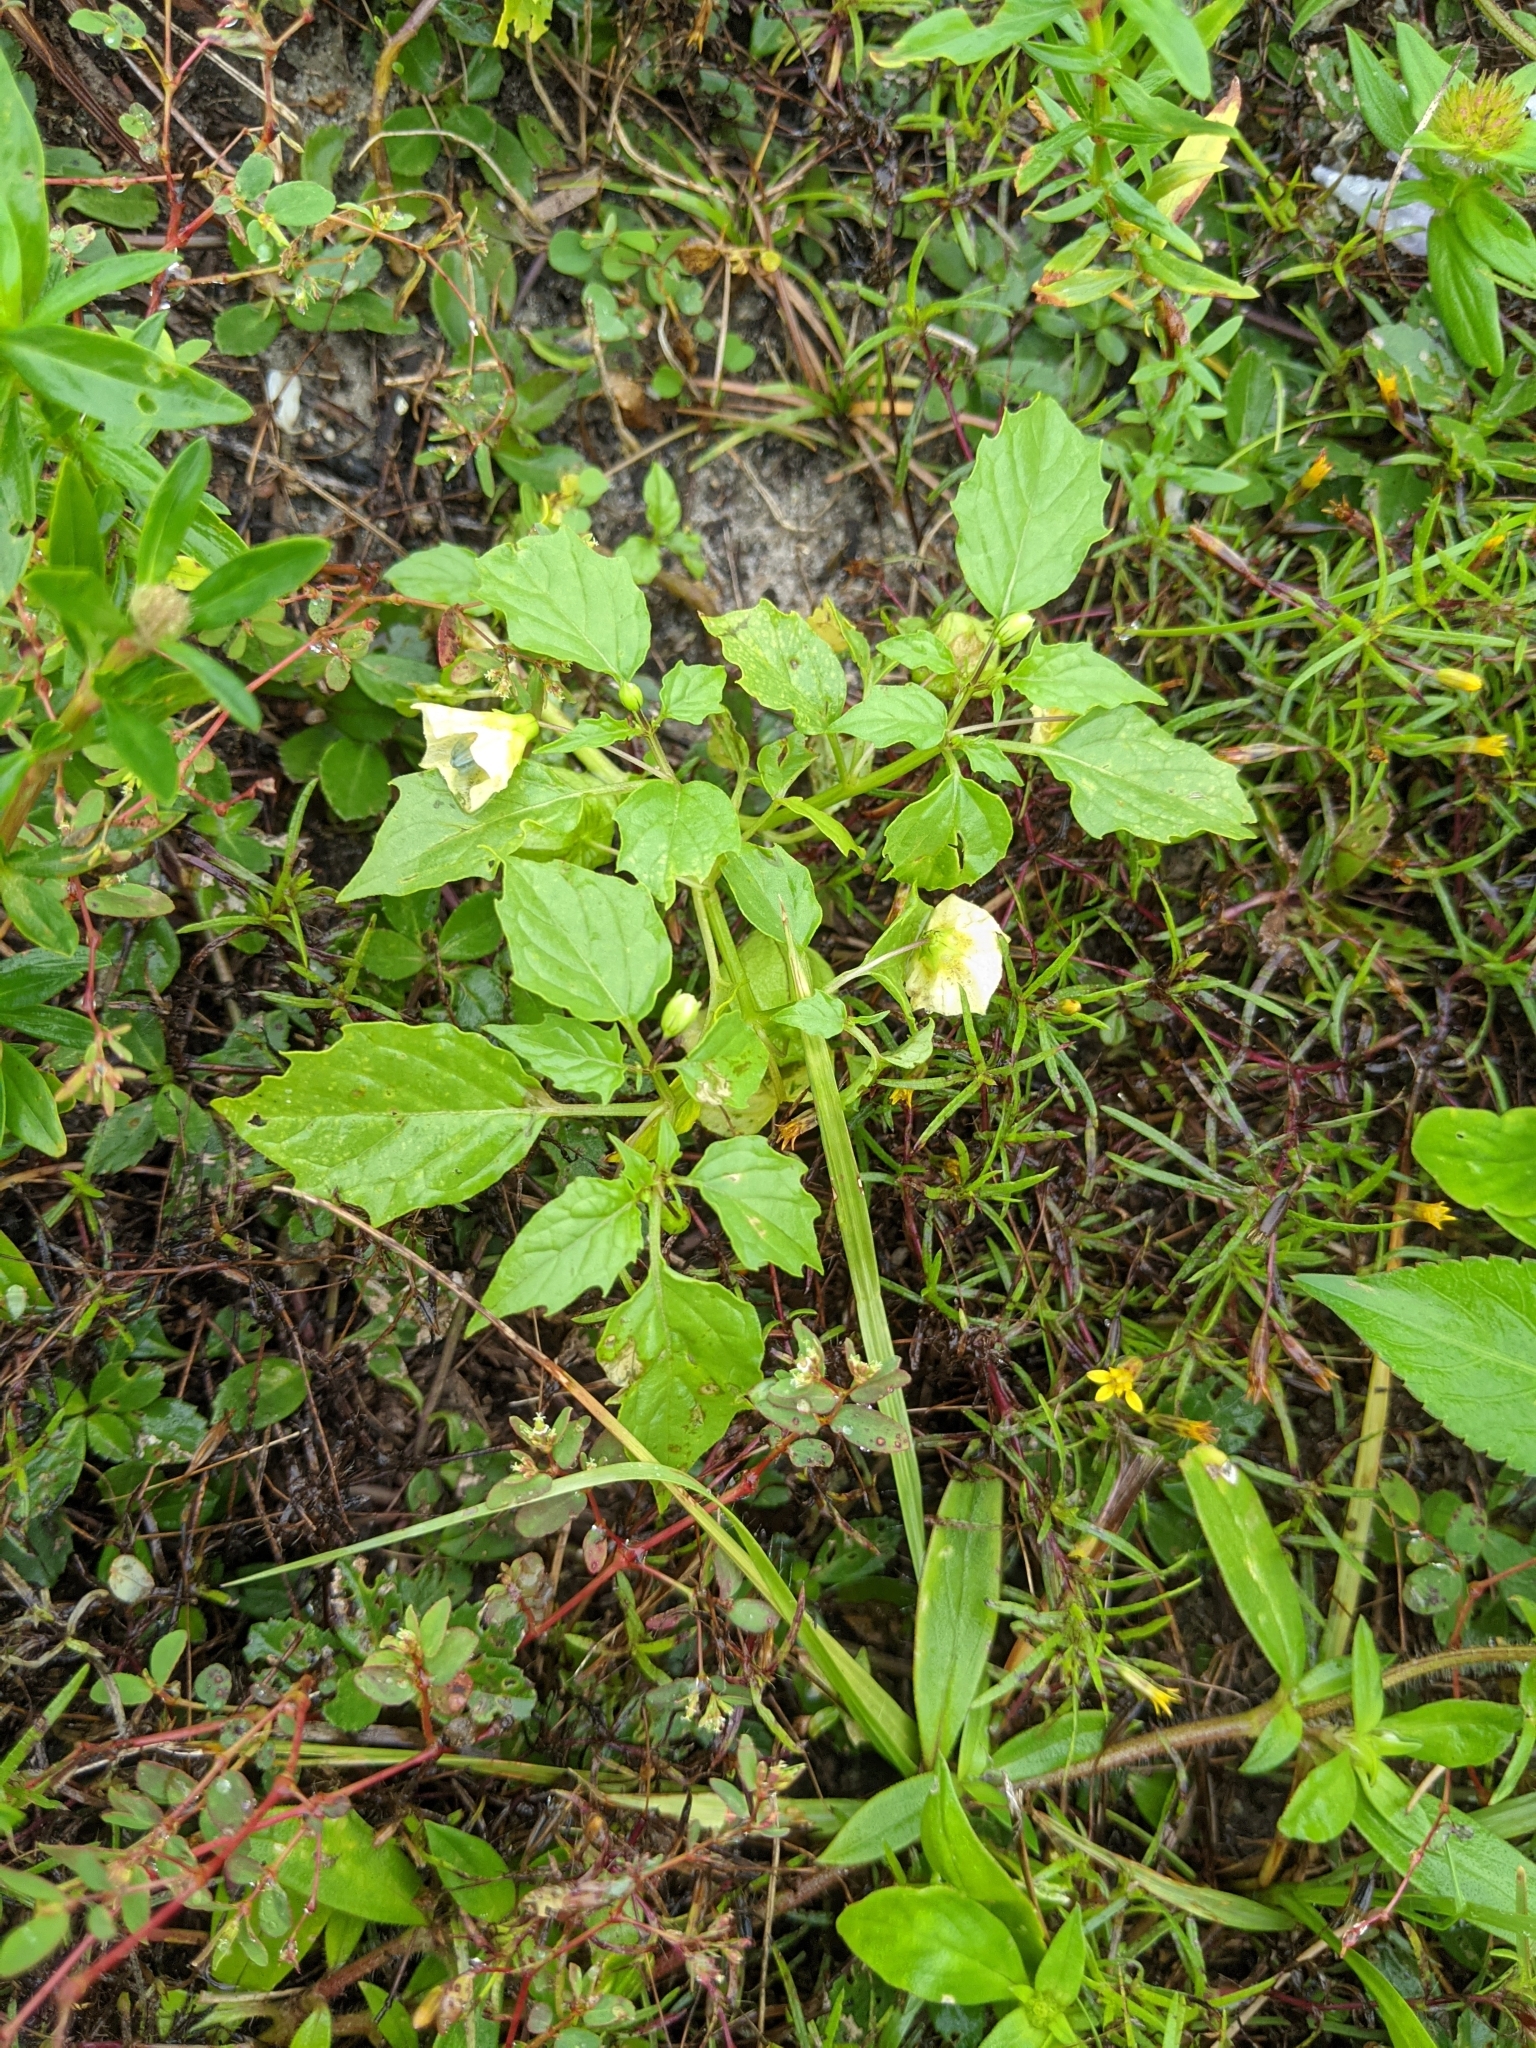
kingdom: Plantae
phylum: Tracheophyta
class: Magnoliopsida
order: Solanales
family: Solanaceae
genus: Physalis
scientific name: Physalis angulata
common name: Angular winter-cherry
